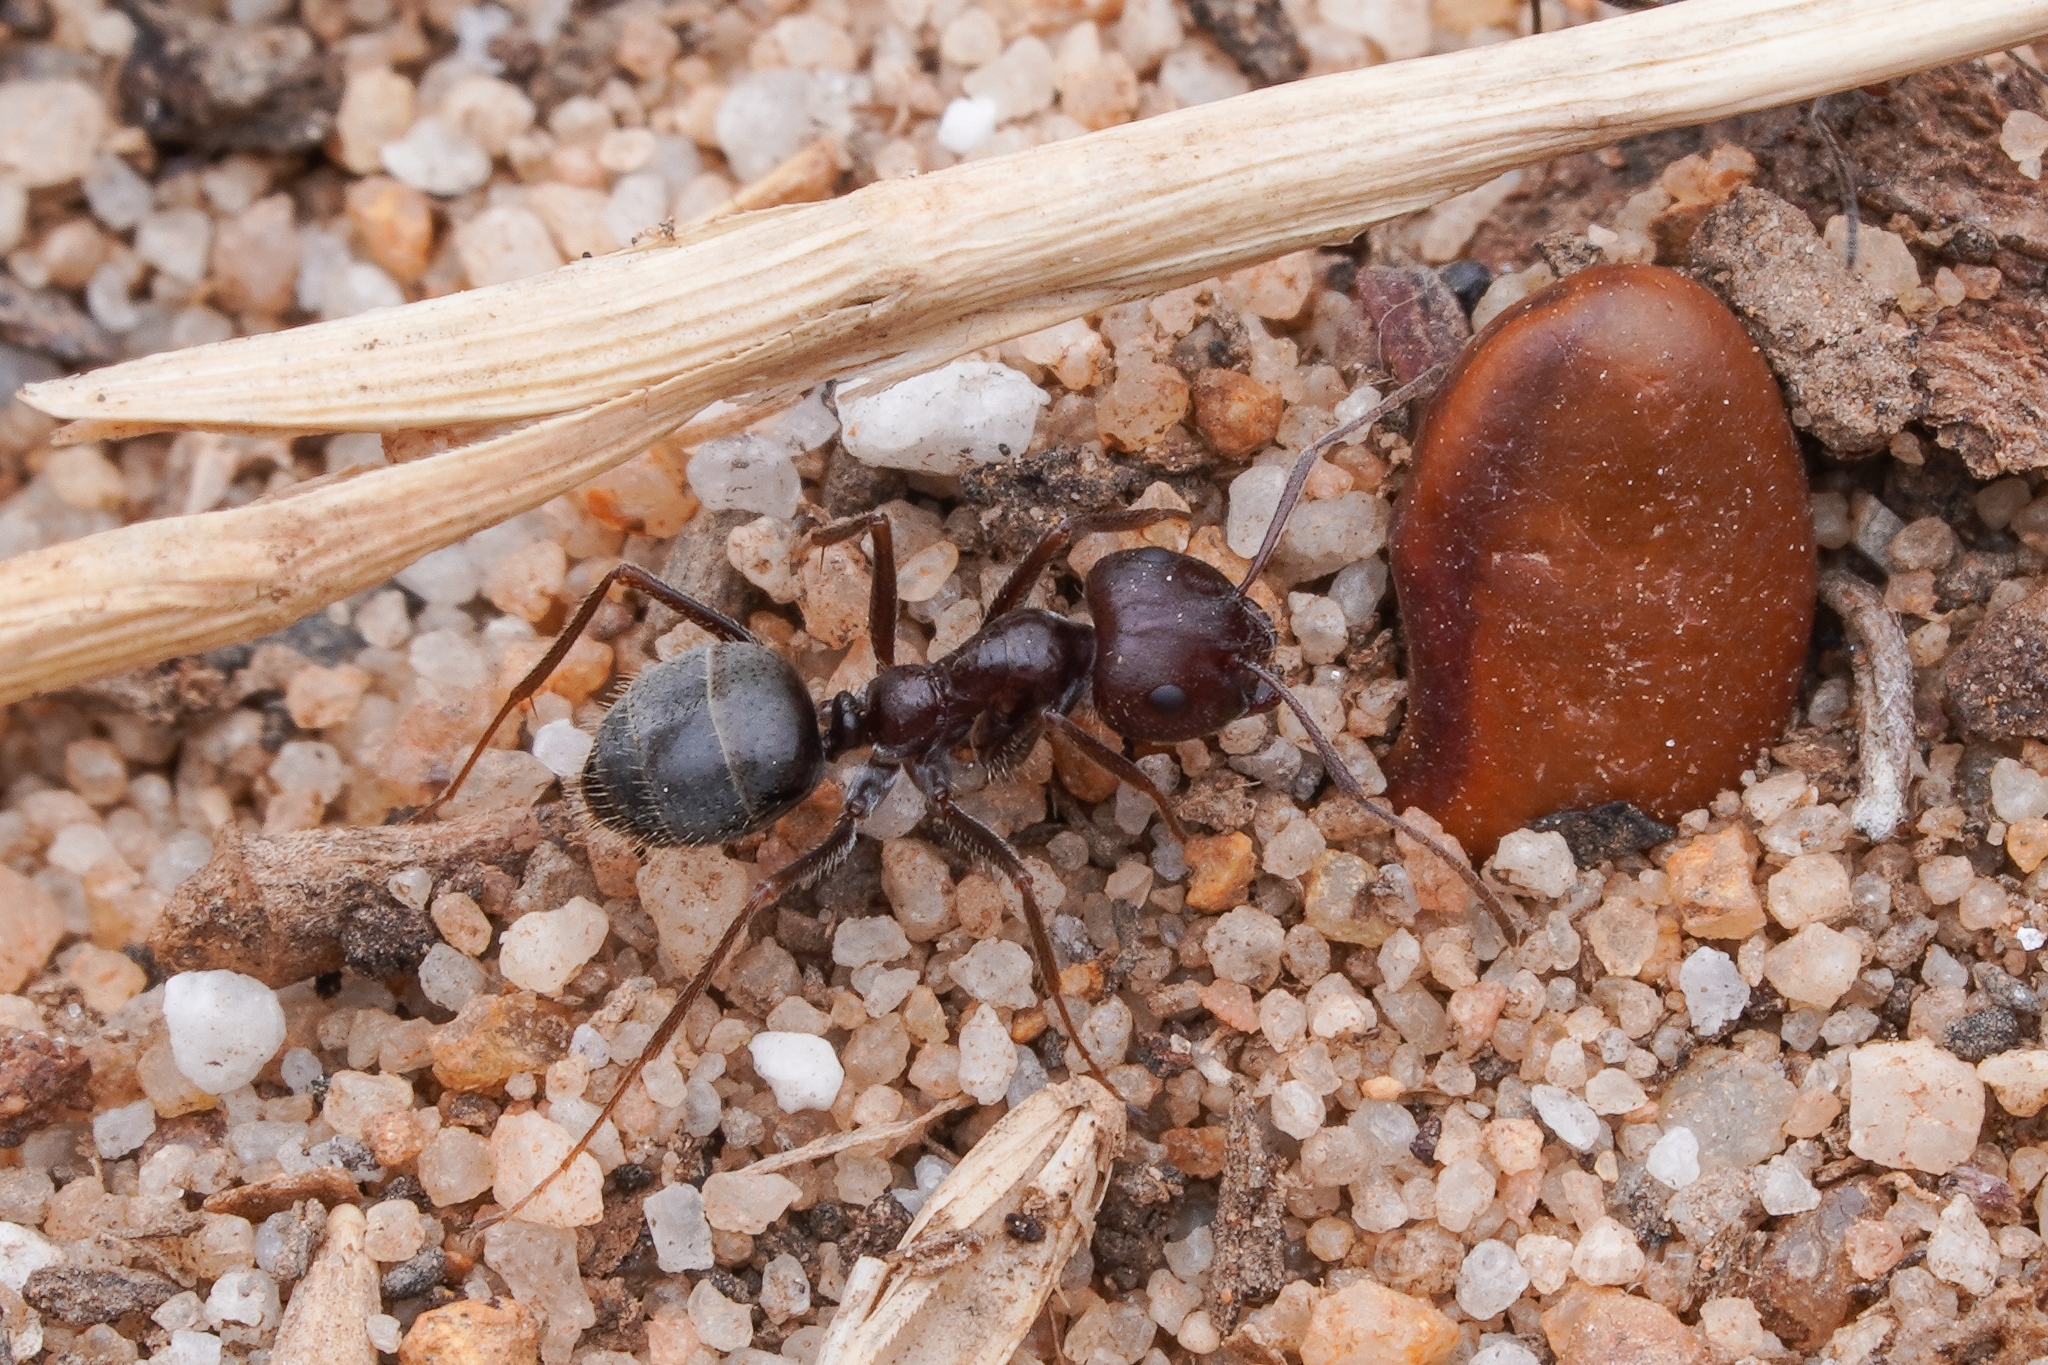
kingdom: Animalia
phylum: Arthropoda
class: Insecta
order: Hymenoptera
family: Formicidae
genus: Anoplolepis
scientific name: Anoplolepis steingroeveri
